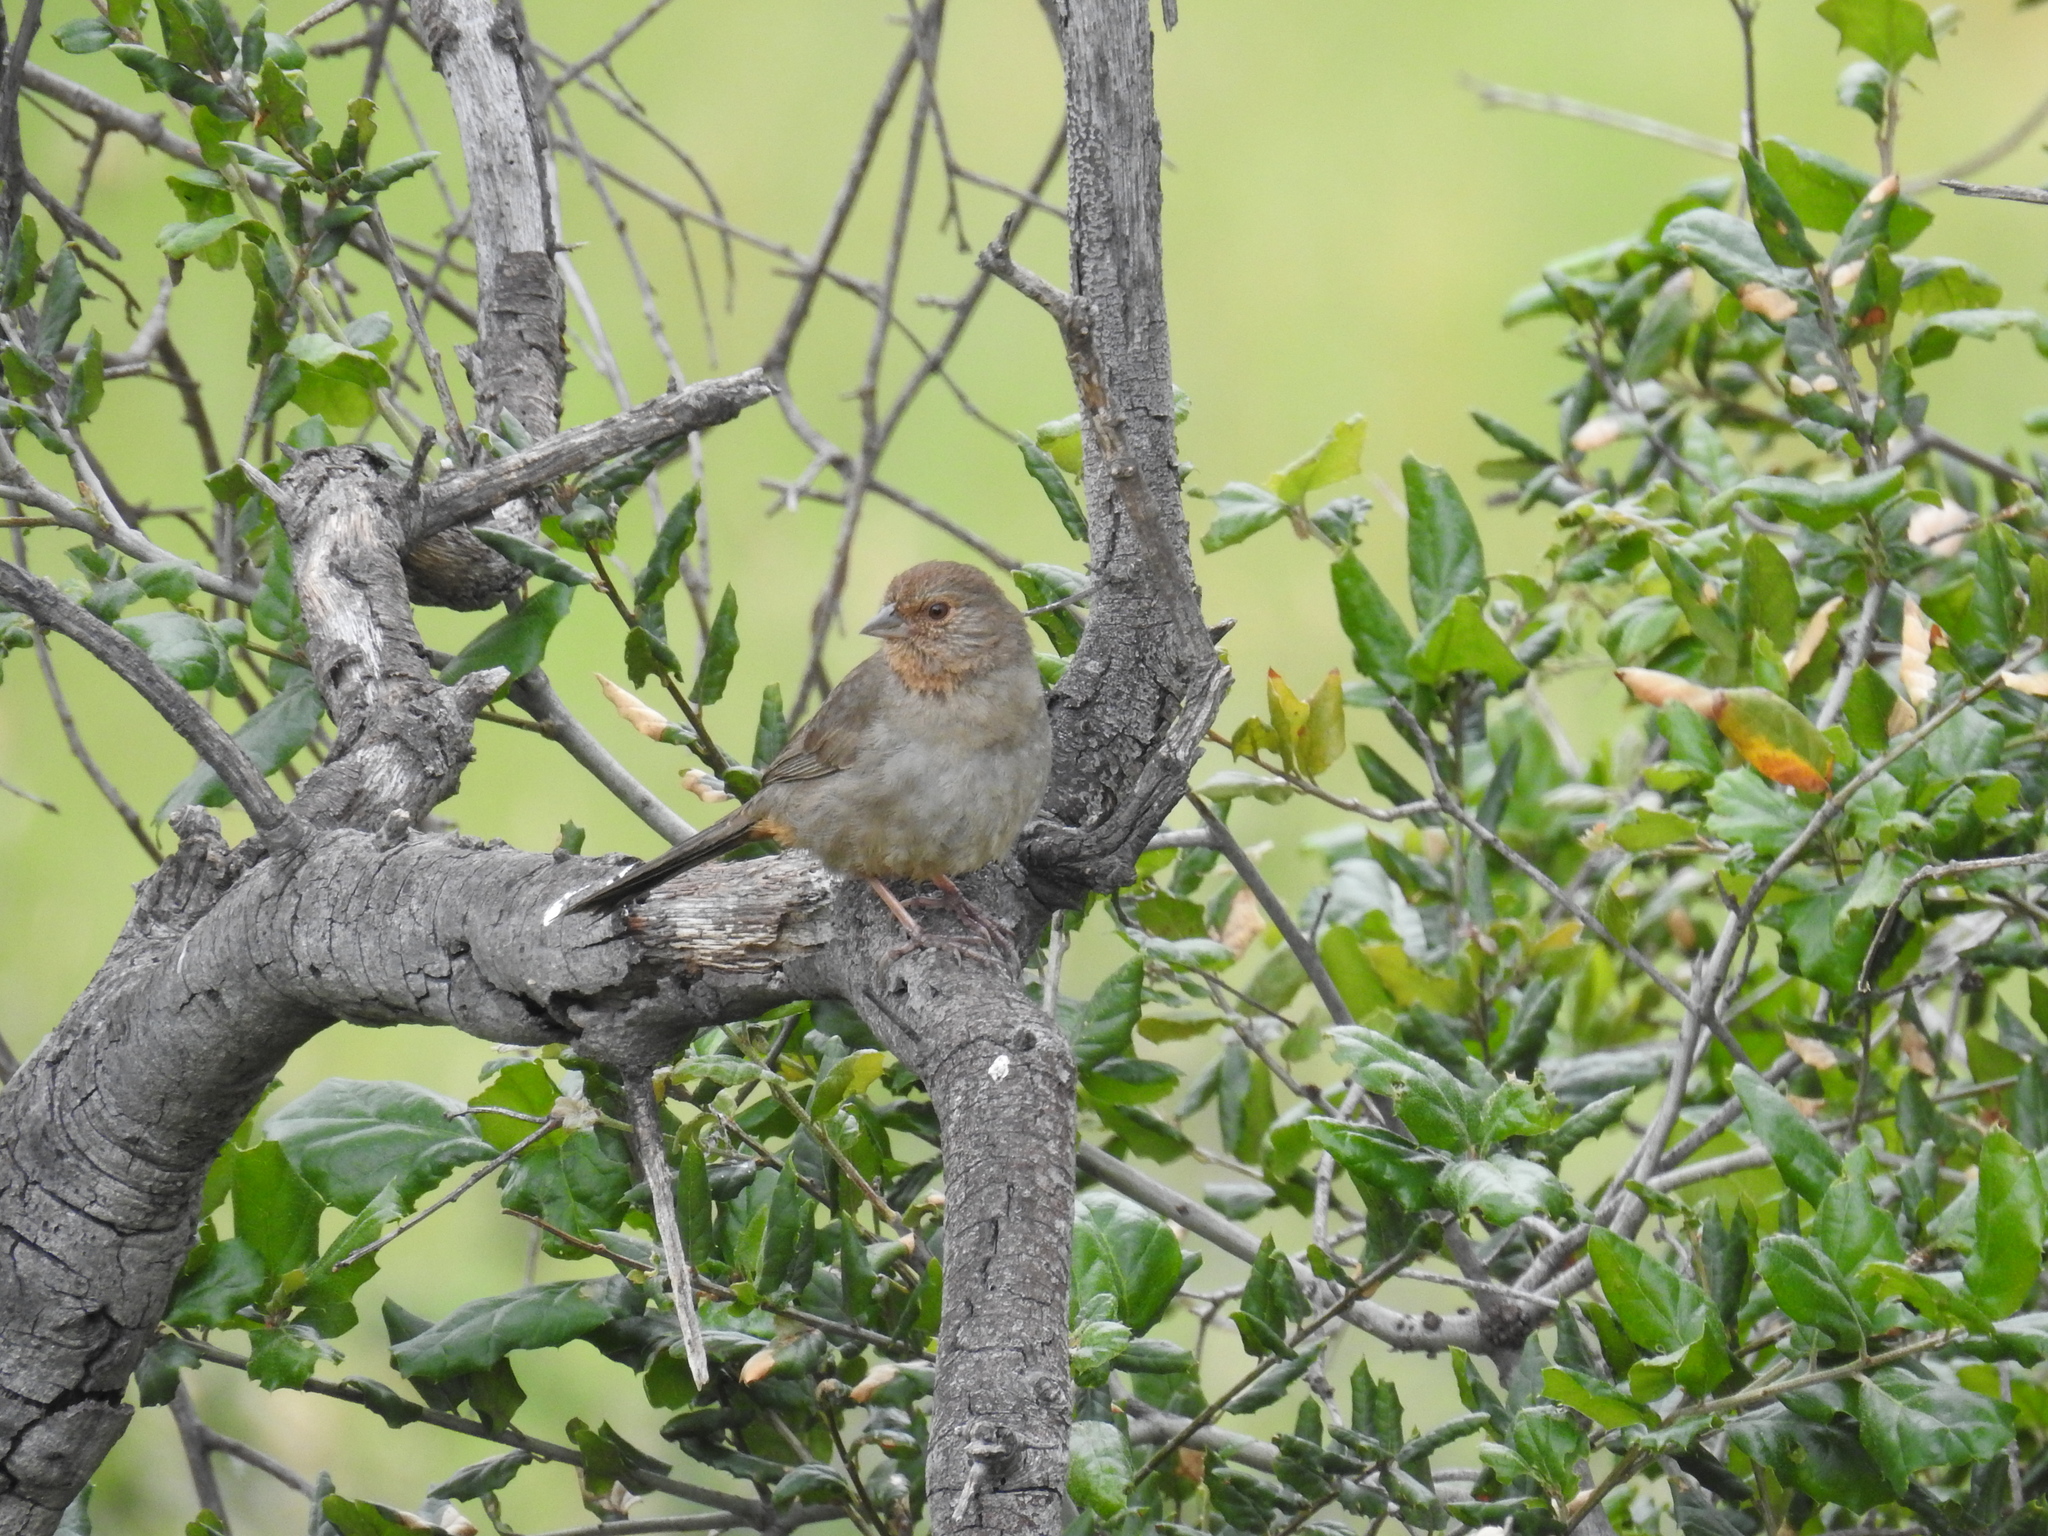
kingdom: Animalia
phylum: Chordata
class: Aves
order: Passeriformes
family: Passerellidae
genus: Melozone
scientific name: Melozone crissalis
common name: California towhee
